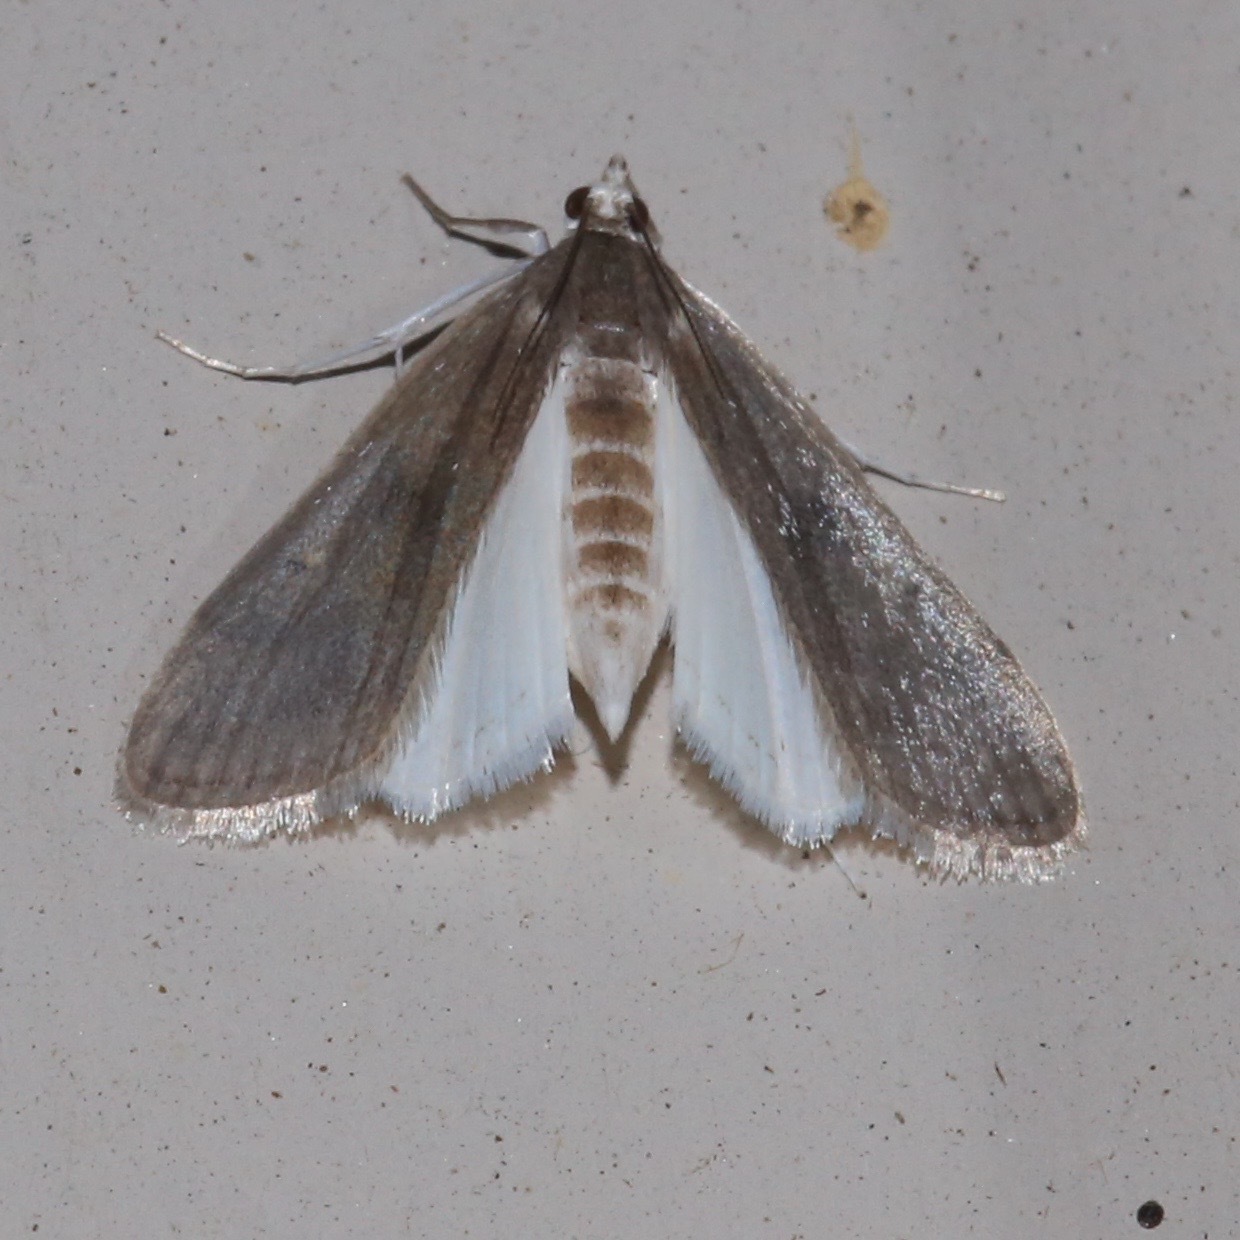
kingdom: Animalia
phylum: Arthropoda
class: Insecta
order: Lepidoptera
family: Crambidae
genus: Parapoynx
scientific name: Parapoynx maculalis
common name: Polymorphic pondweed moth
